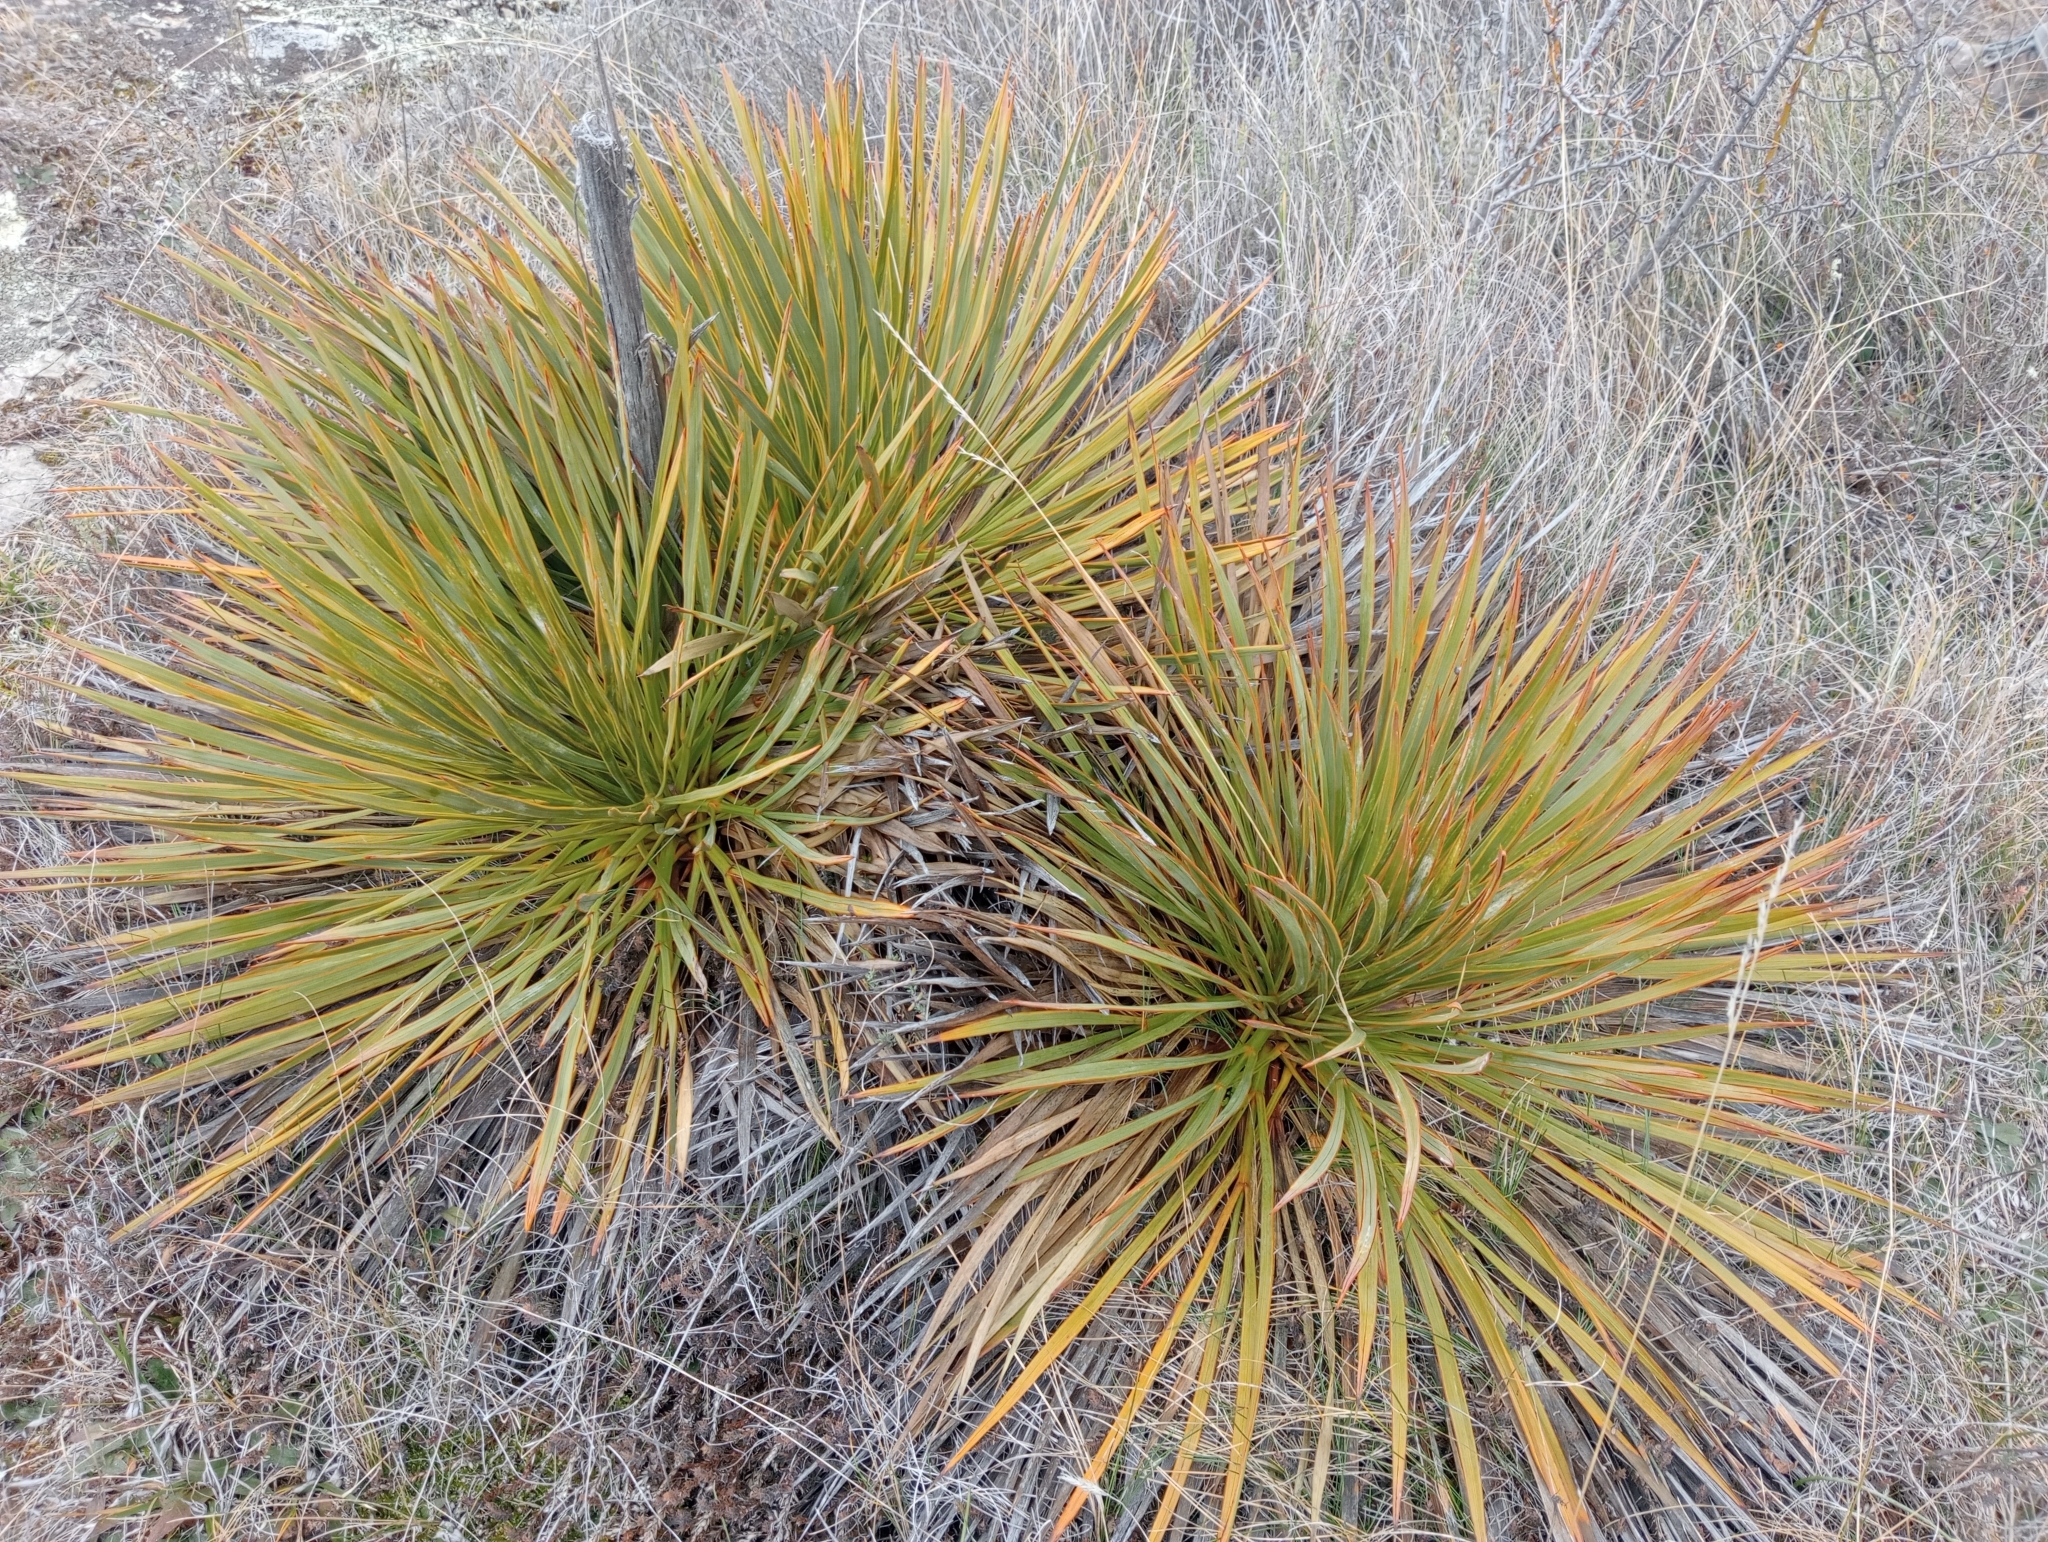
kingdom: Plantae
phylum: Tracheophyta
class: Magnoliopsida
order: Apiales
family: Apiaceae
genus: Aciphylla
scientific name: Aciphylla aurea
